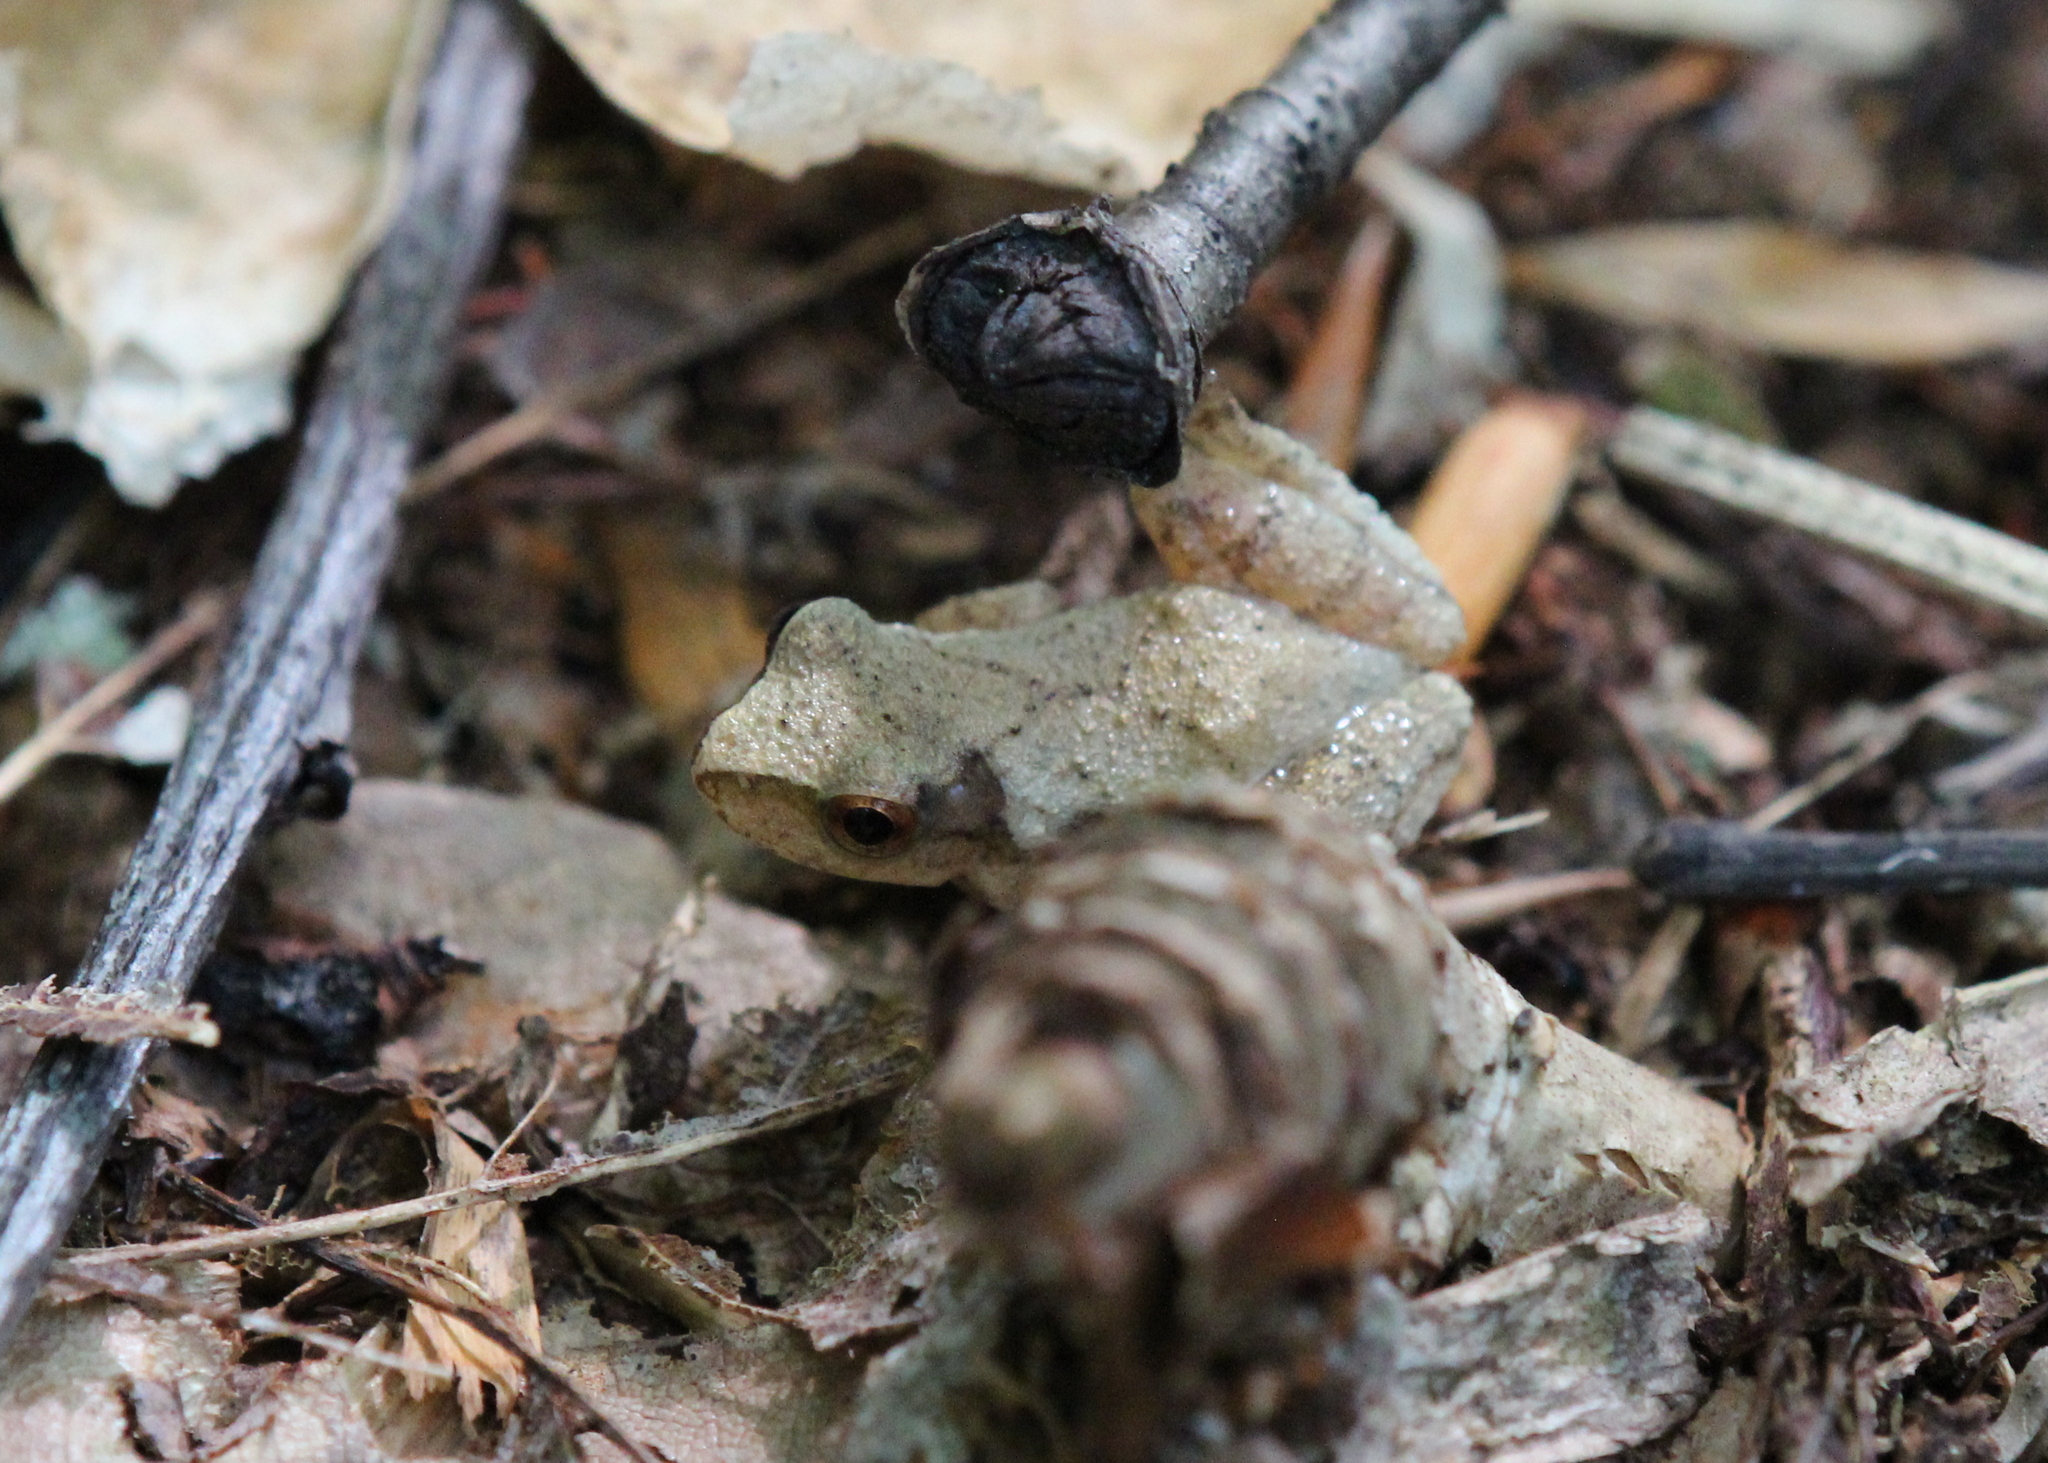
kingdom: Animalia
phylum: Chordata
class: Amphibia
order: Anura
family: Hylidae
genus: Pseudacris
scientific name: Pseudacris crucifer
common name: Spring peeper
